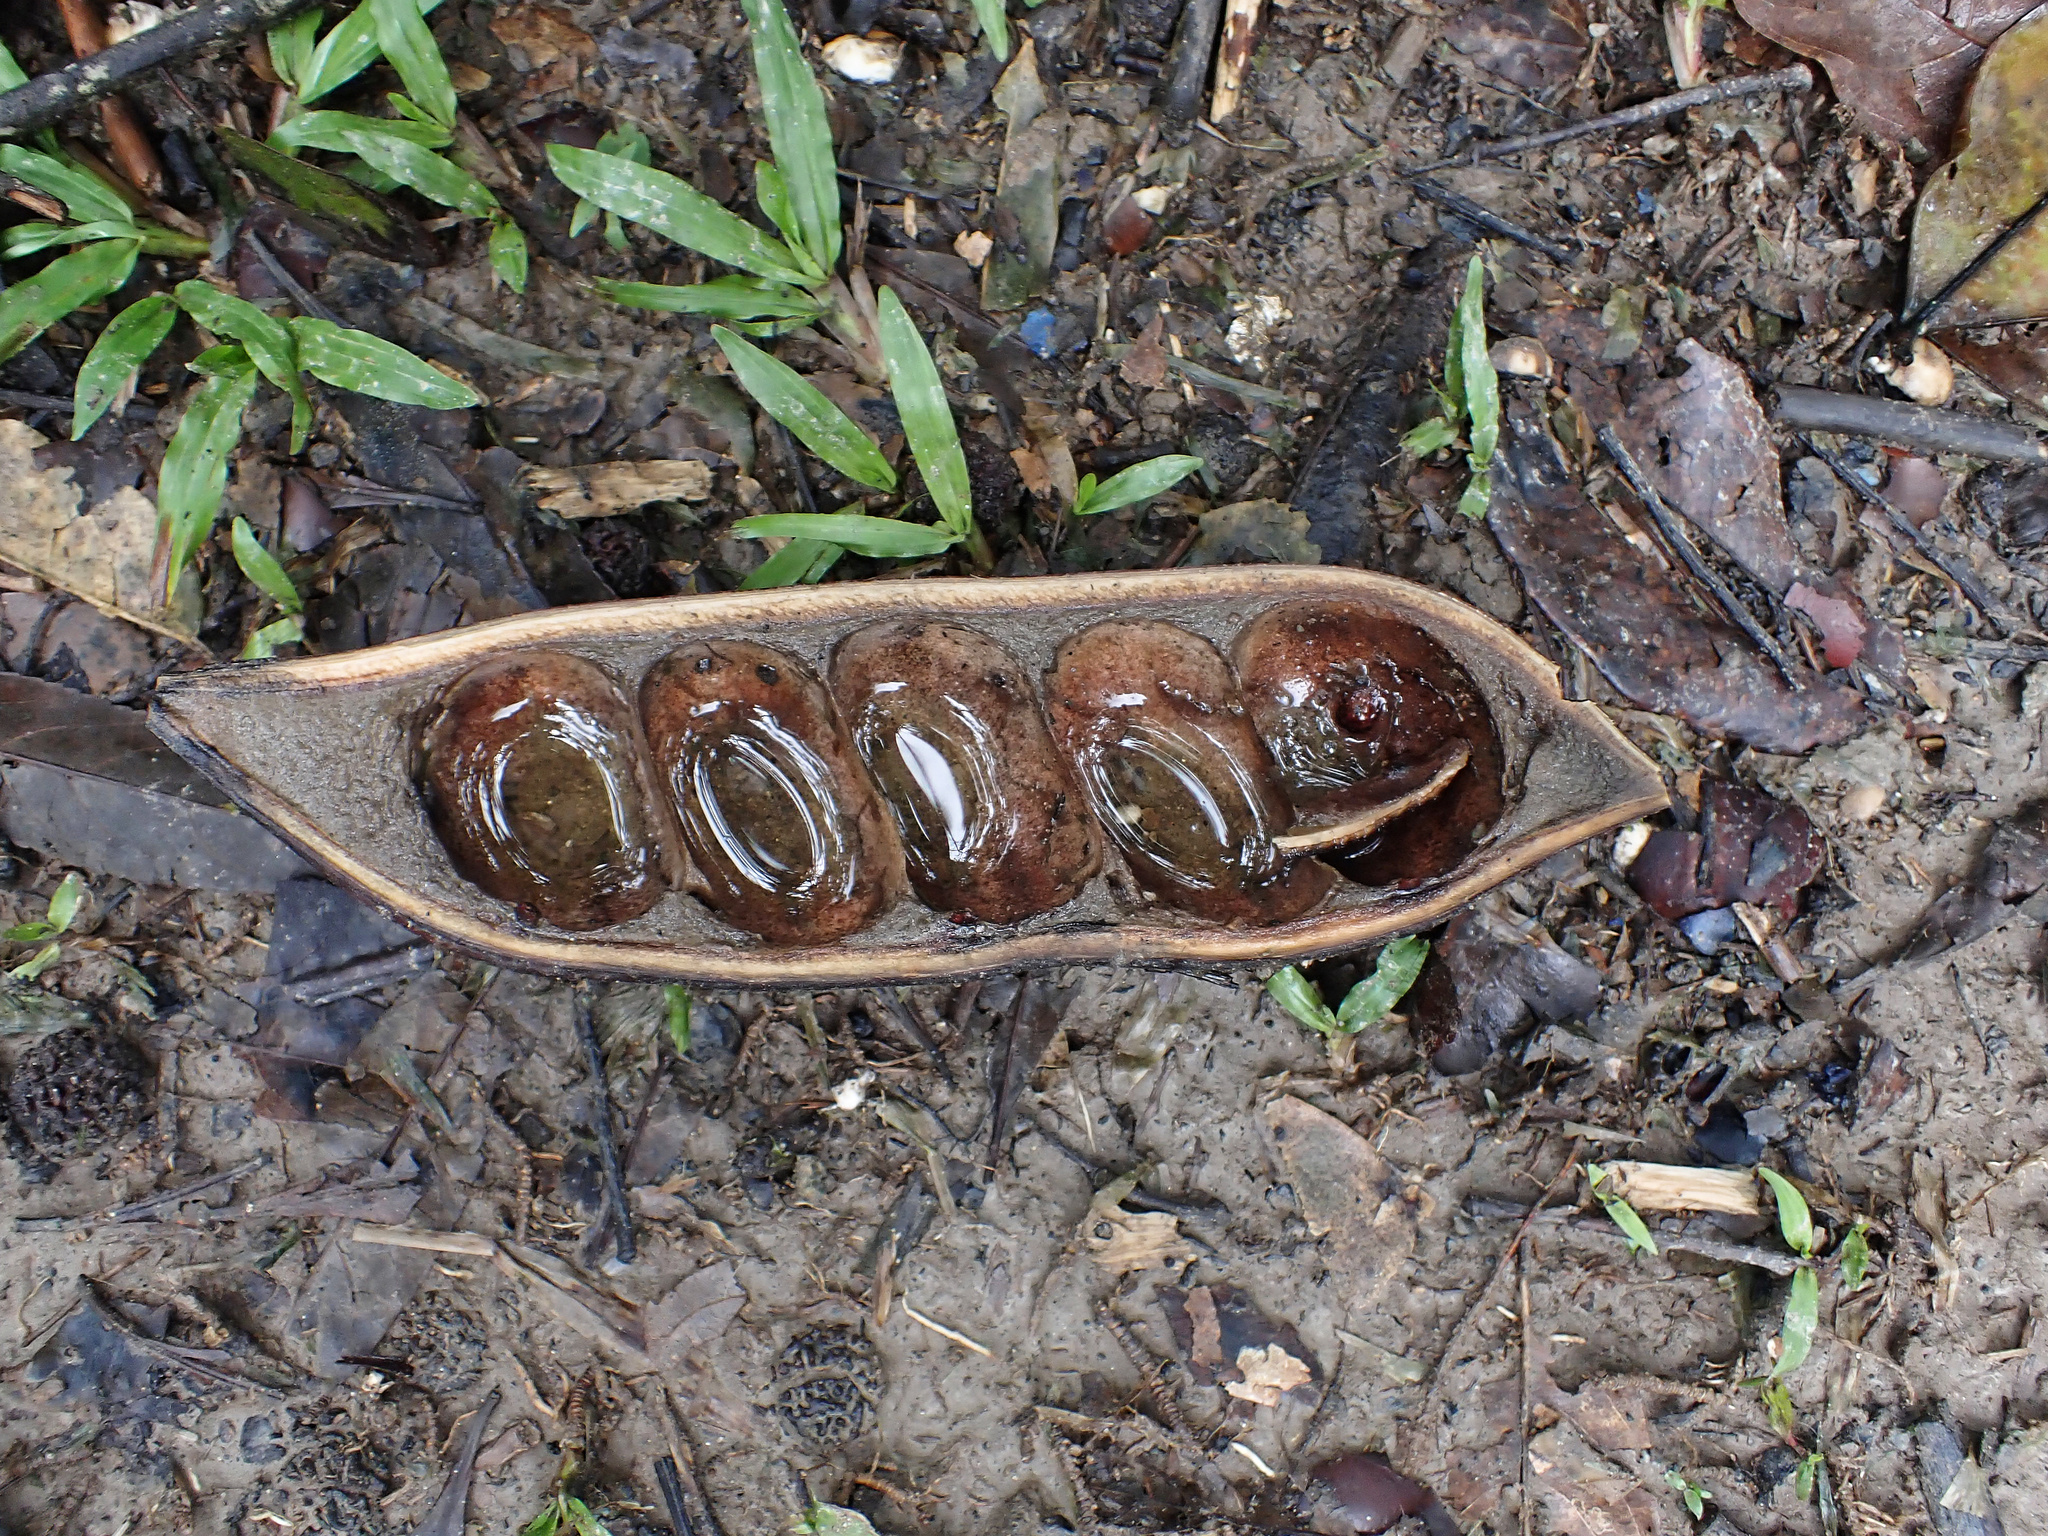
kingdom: Plantae
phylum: Tracheophyta
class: Magnoliopsida
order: Fabales
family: Fabaceae
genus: Castanospermum
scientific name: Castanospermum australe
